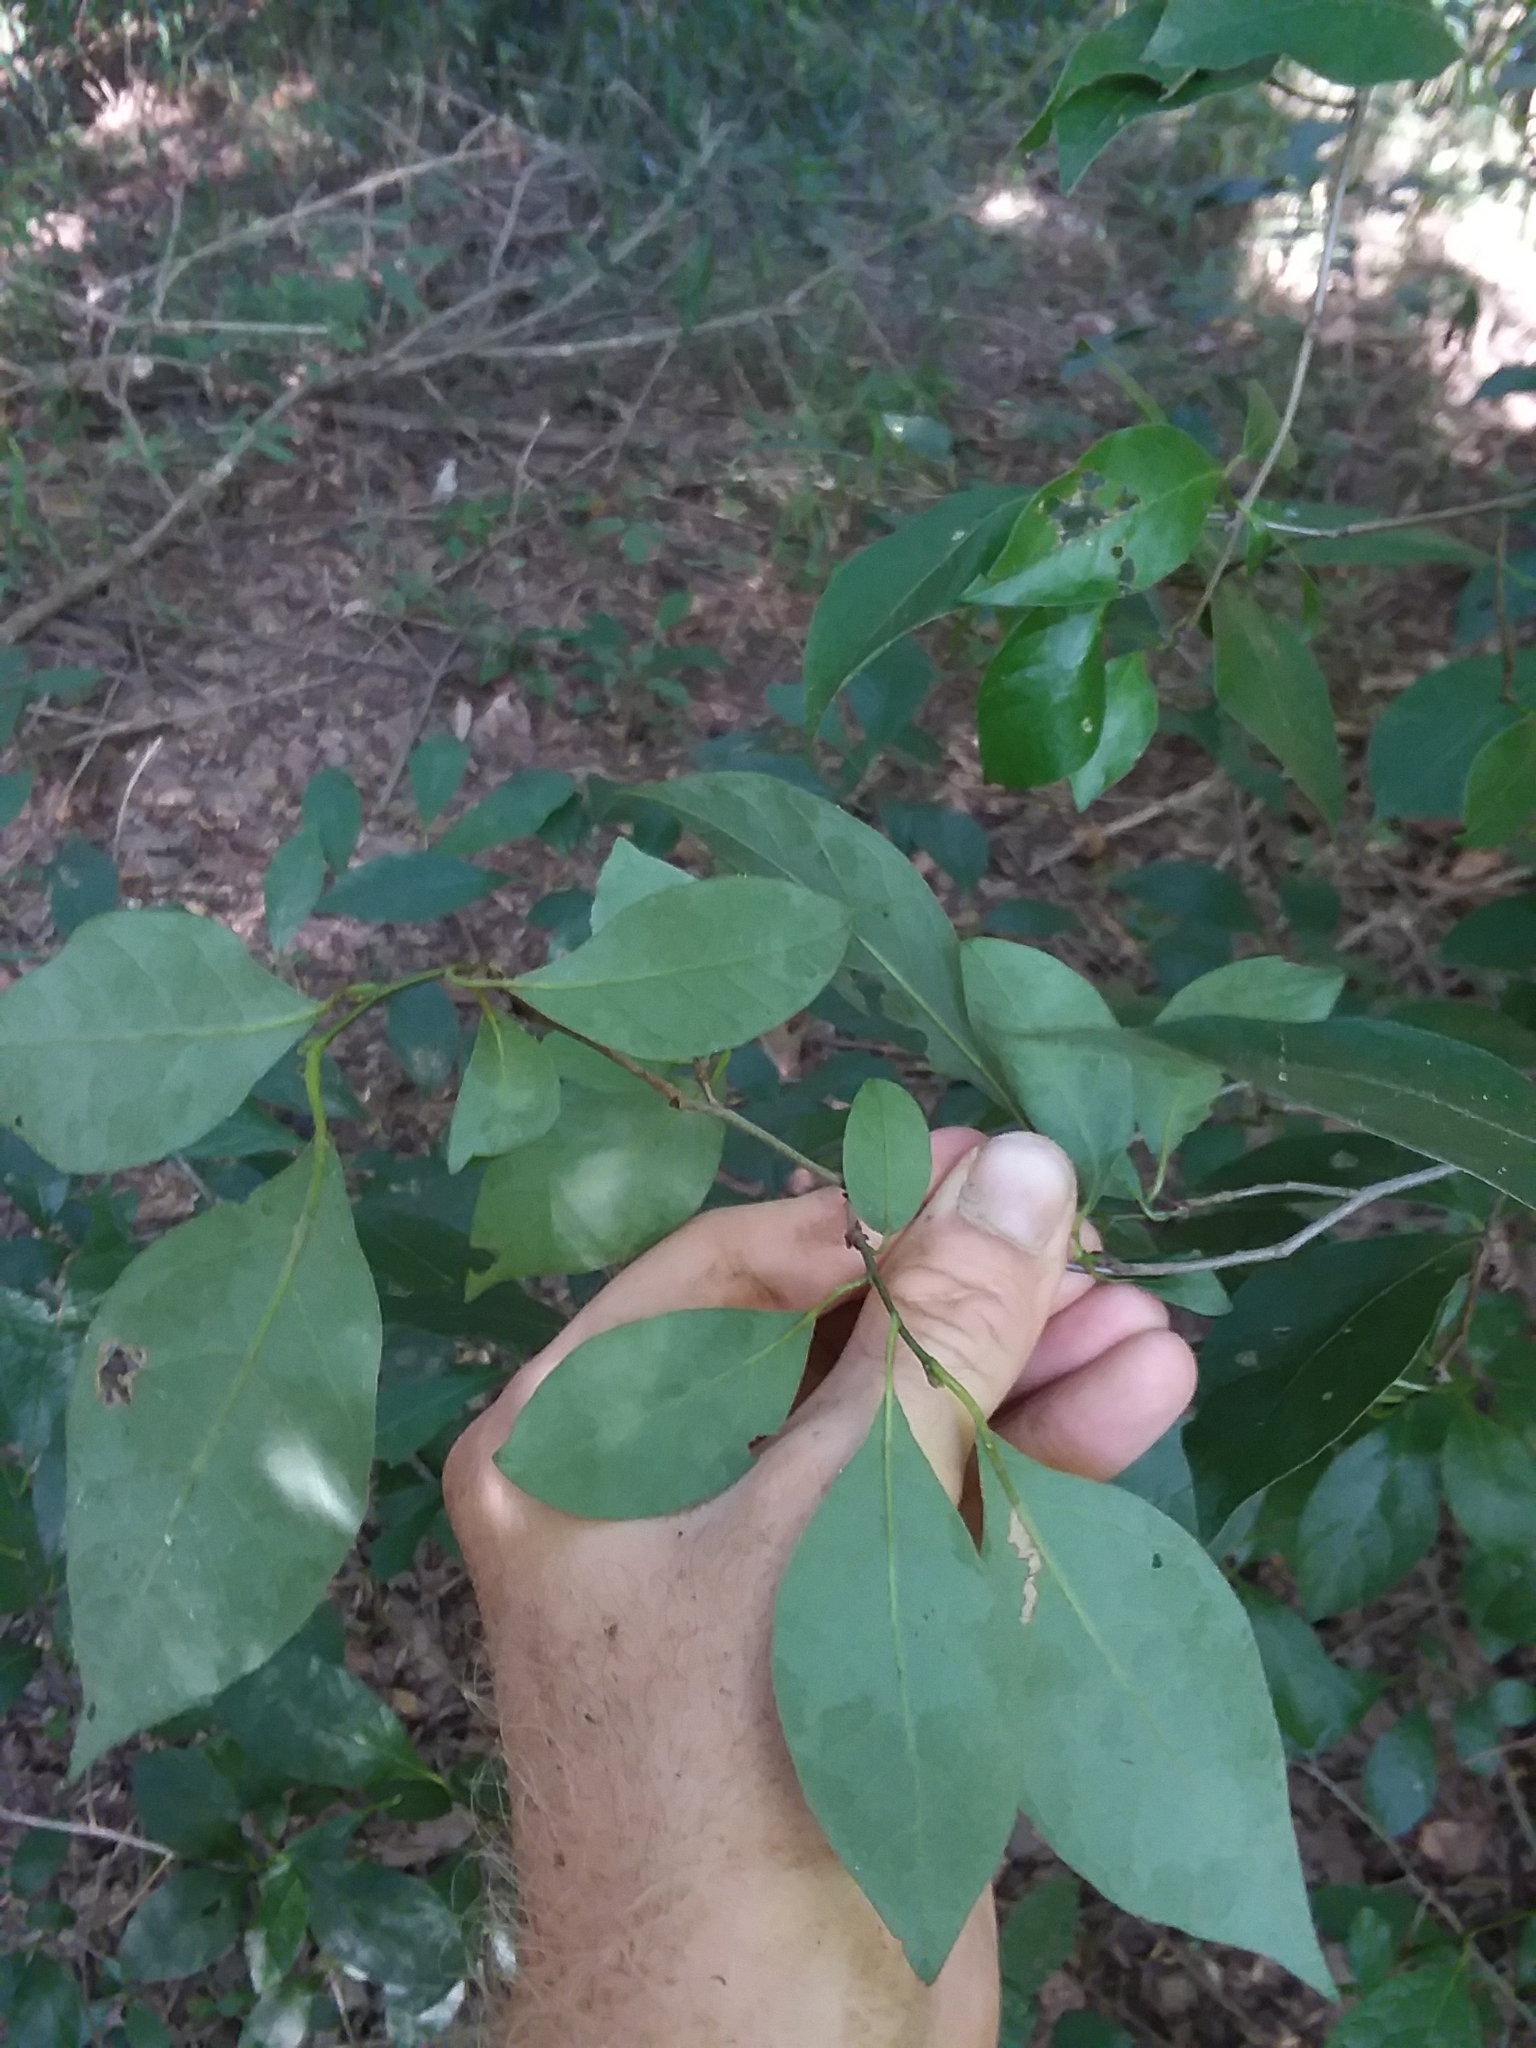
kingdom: Plantae
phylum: Tracheophyta
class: Magnoliopsida
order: Laurales
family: Lauraceae
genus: Lindera
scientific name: Lindera benzoin
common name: Spicebush
